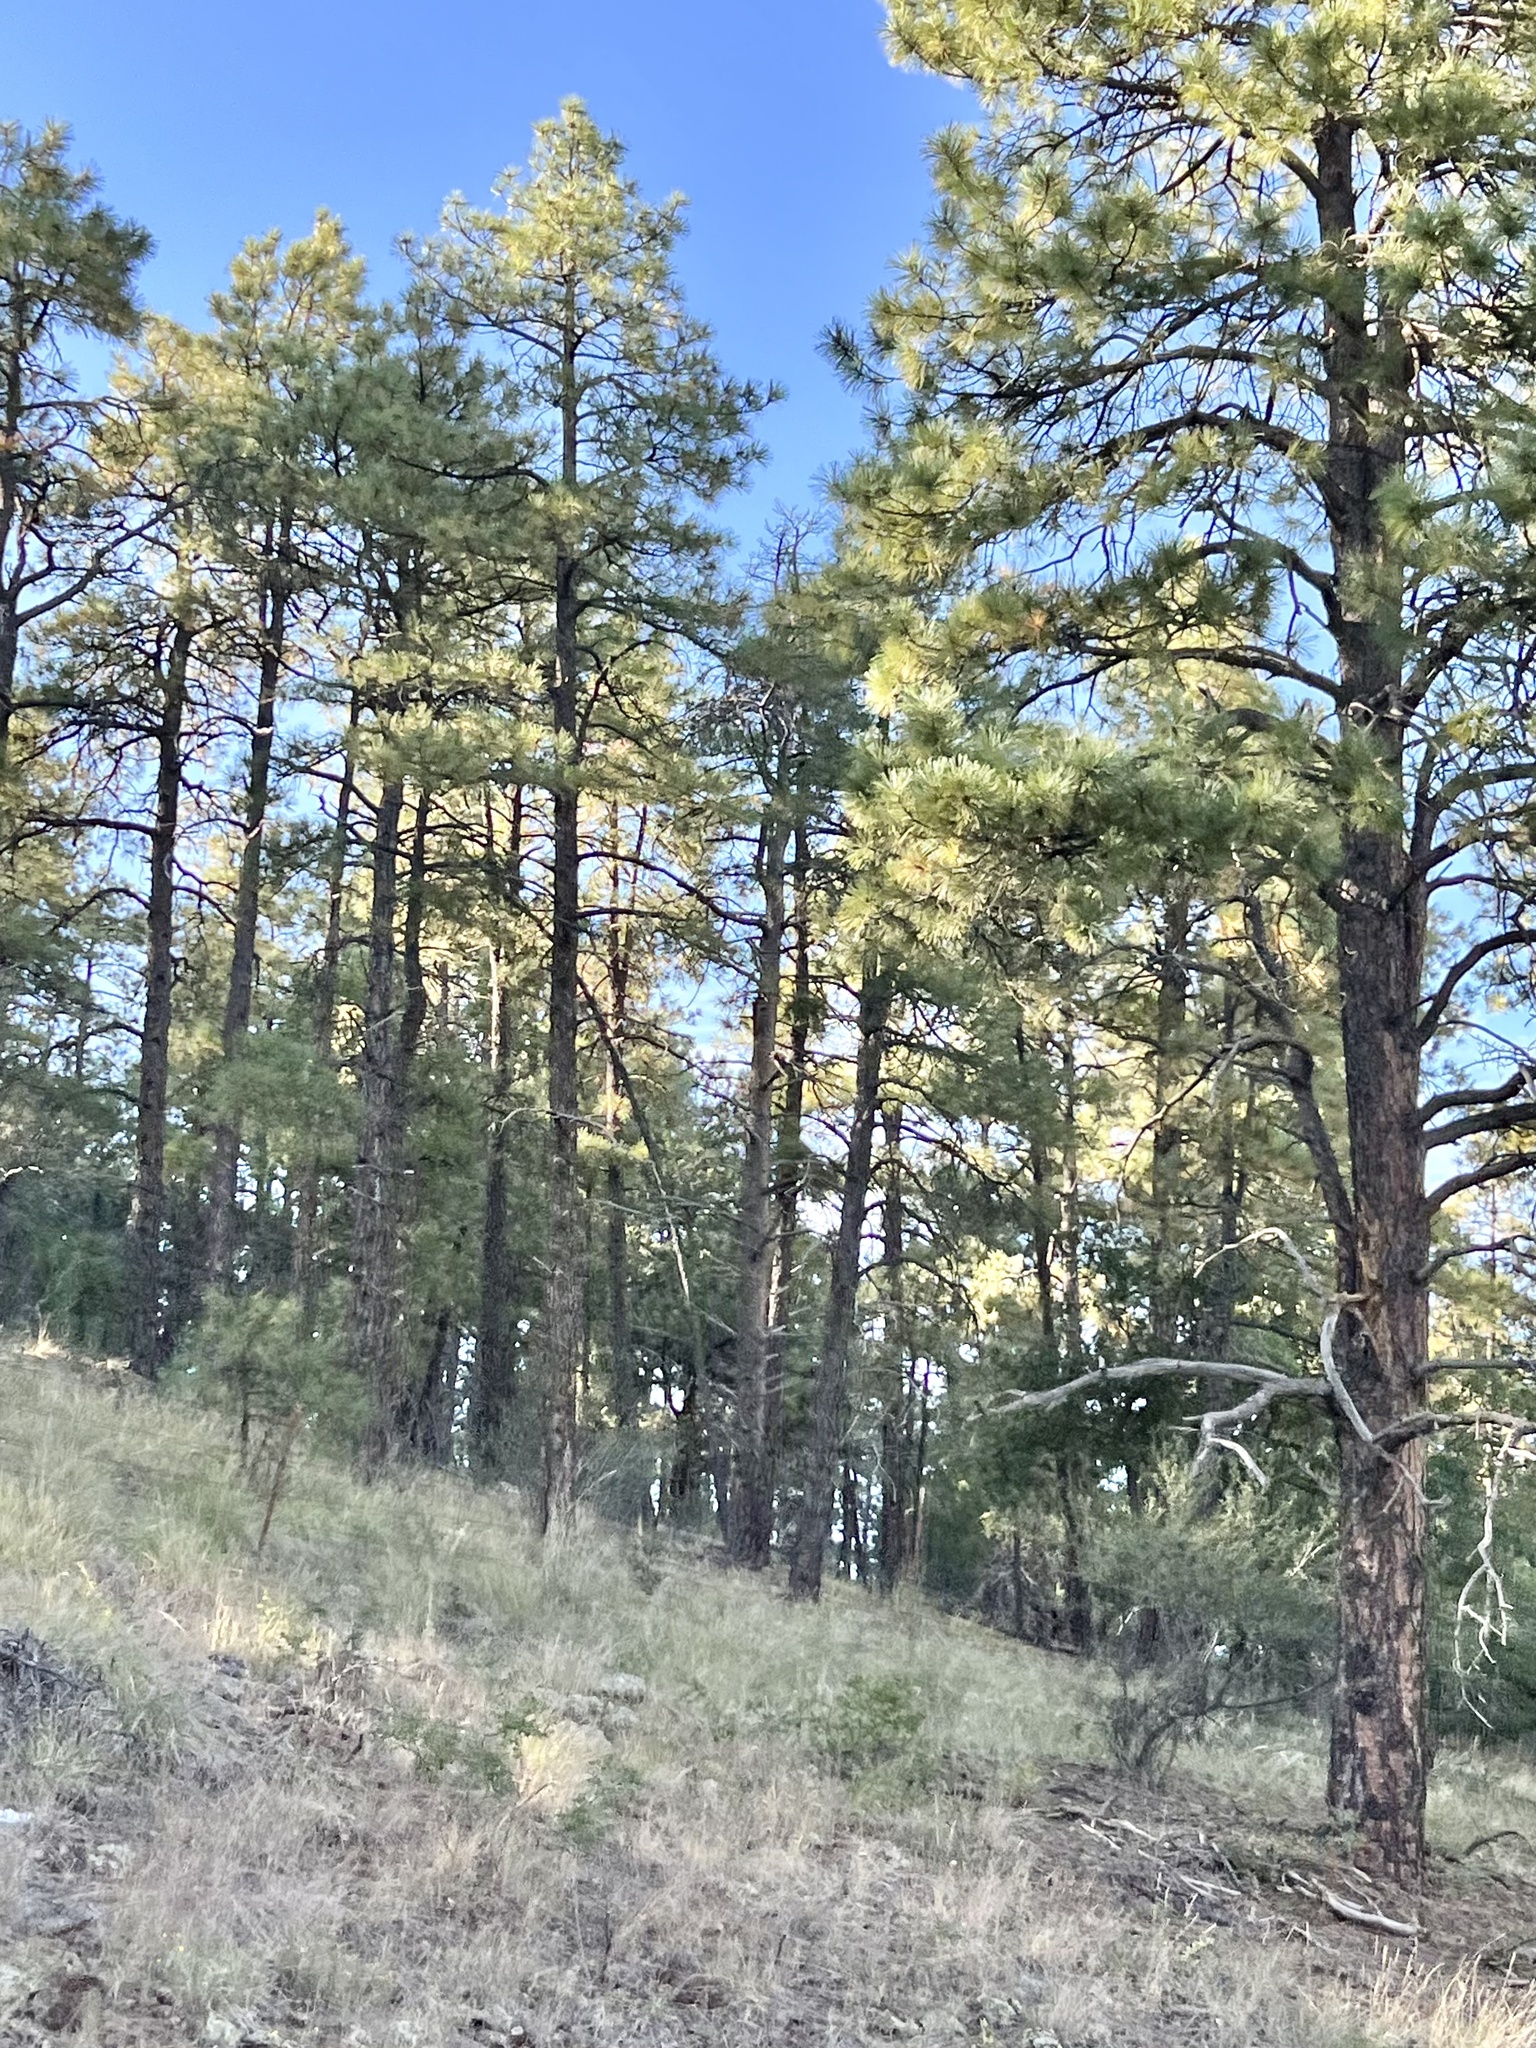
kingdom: Plantae
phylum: Tracheophyta
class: Pinopsida
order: Pinales
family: Pinaceae
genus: Pinus
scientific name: Pinus ponderosa
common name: Western yellow-pine
